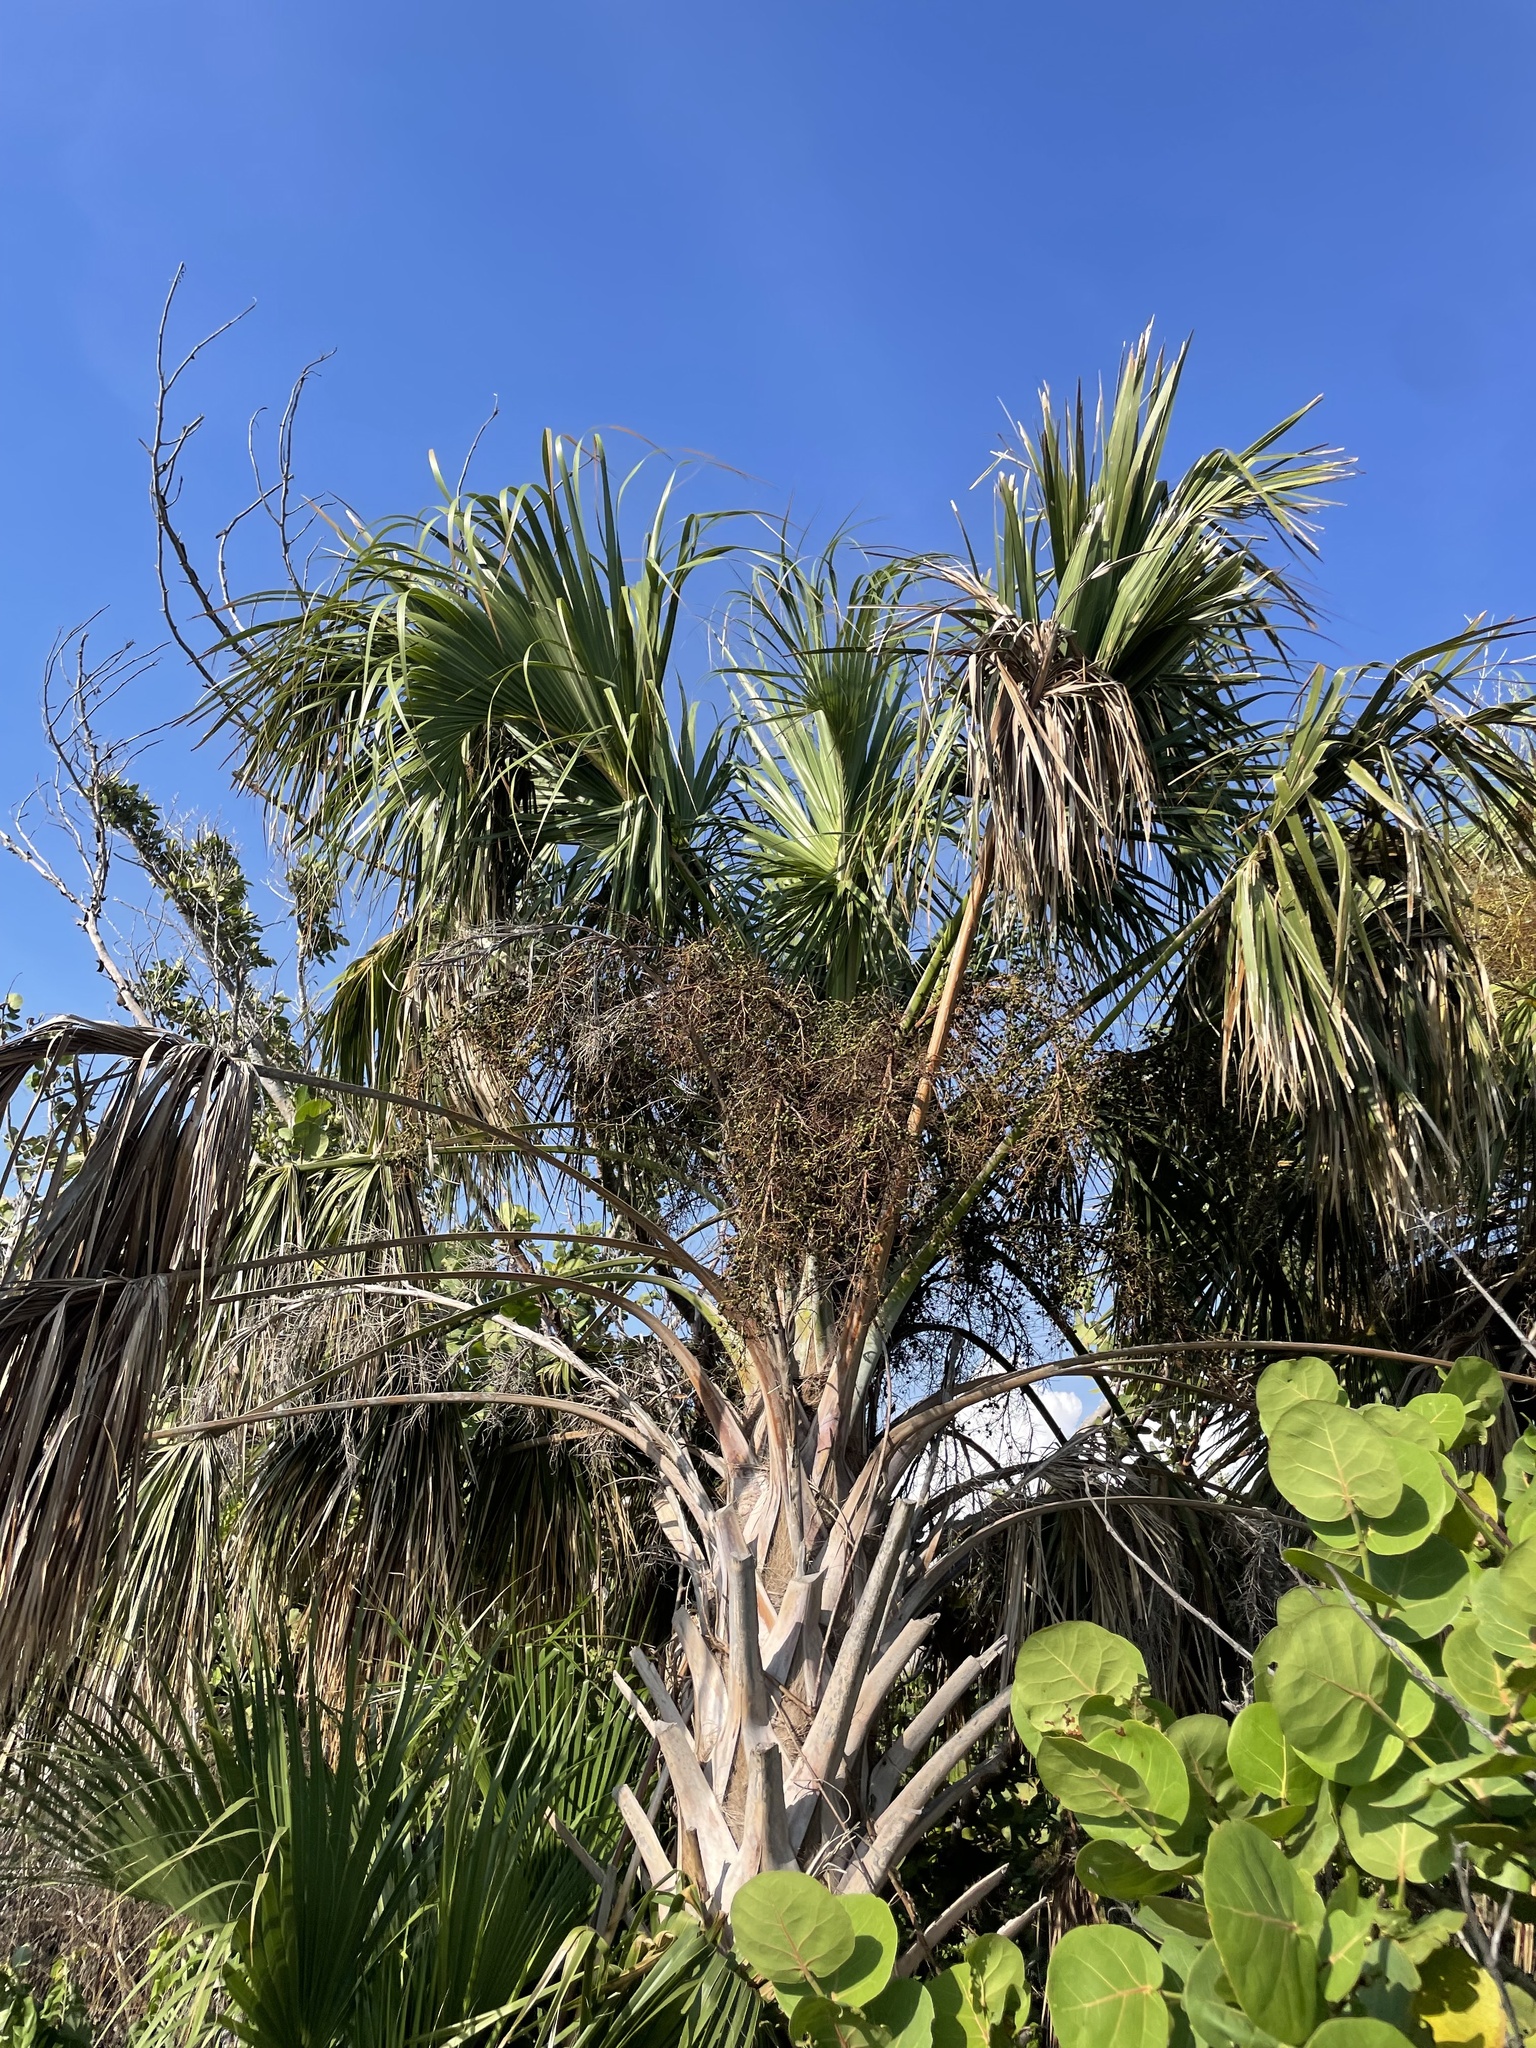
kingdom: Plantae
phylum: Tracheophyta
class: Liliopsida
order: Arecales
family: Arecaceae
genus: Sabal
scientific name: Sabal palmetto
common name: Blue palmetto
